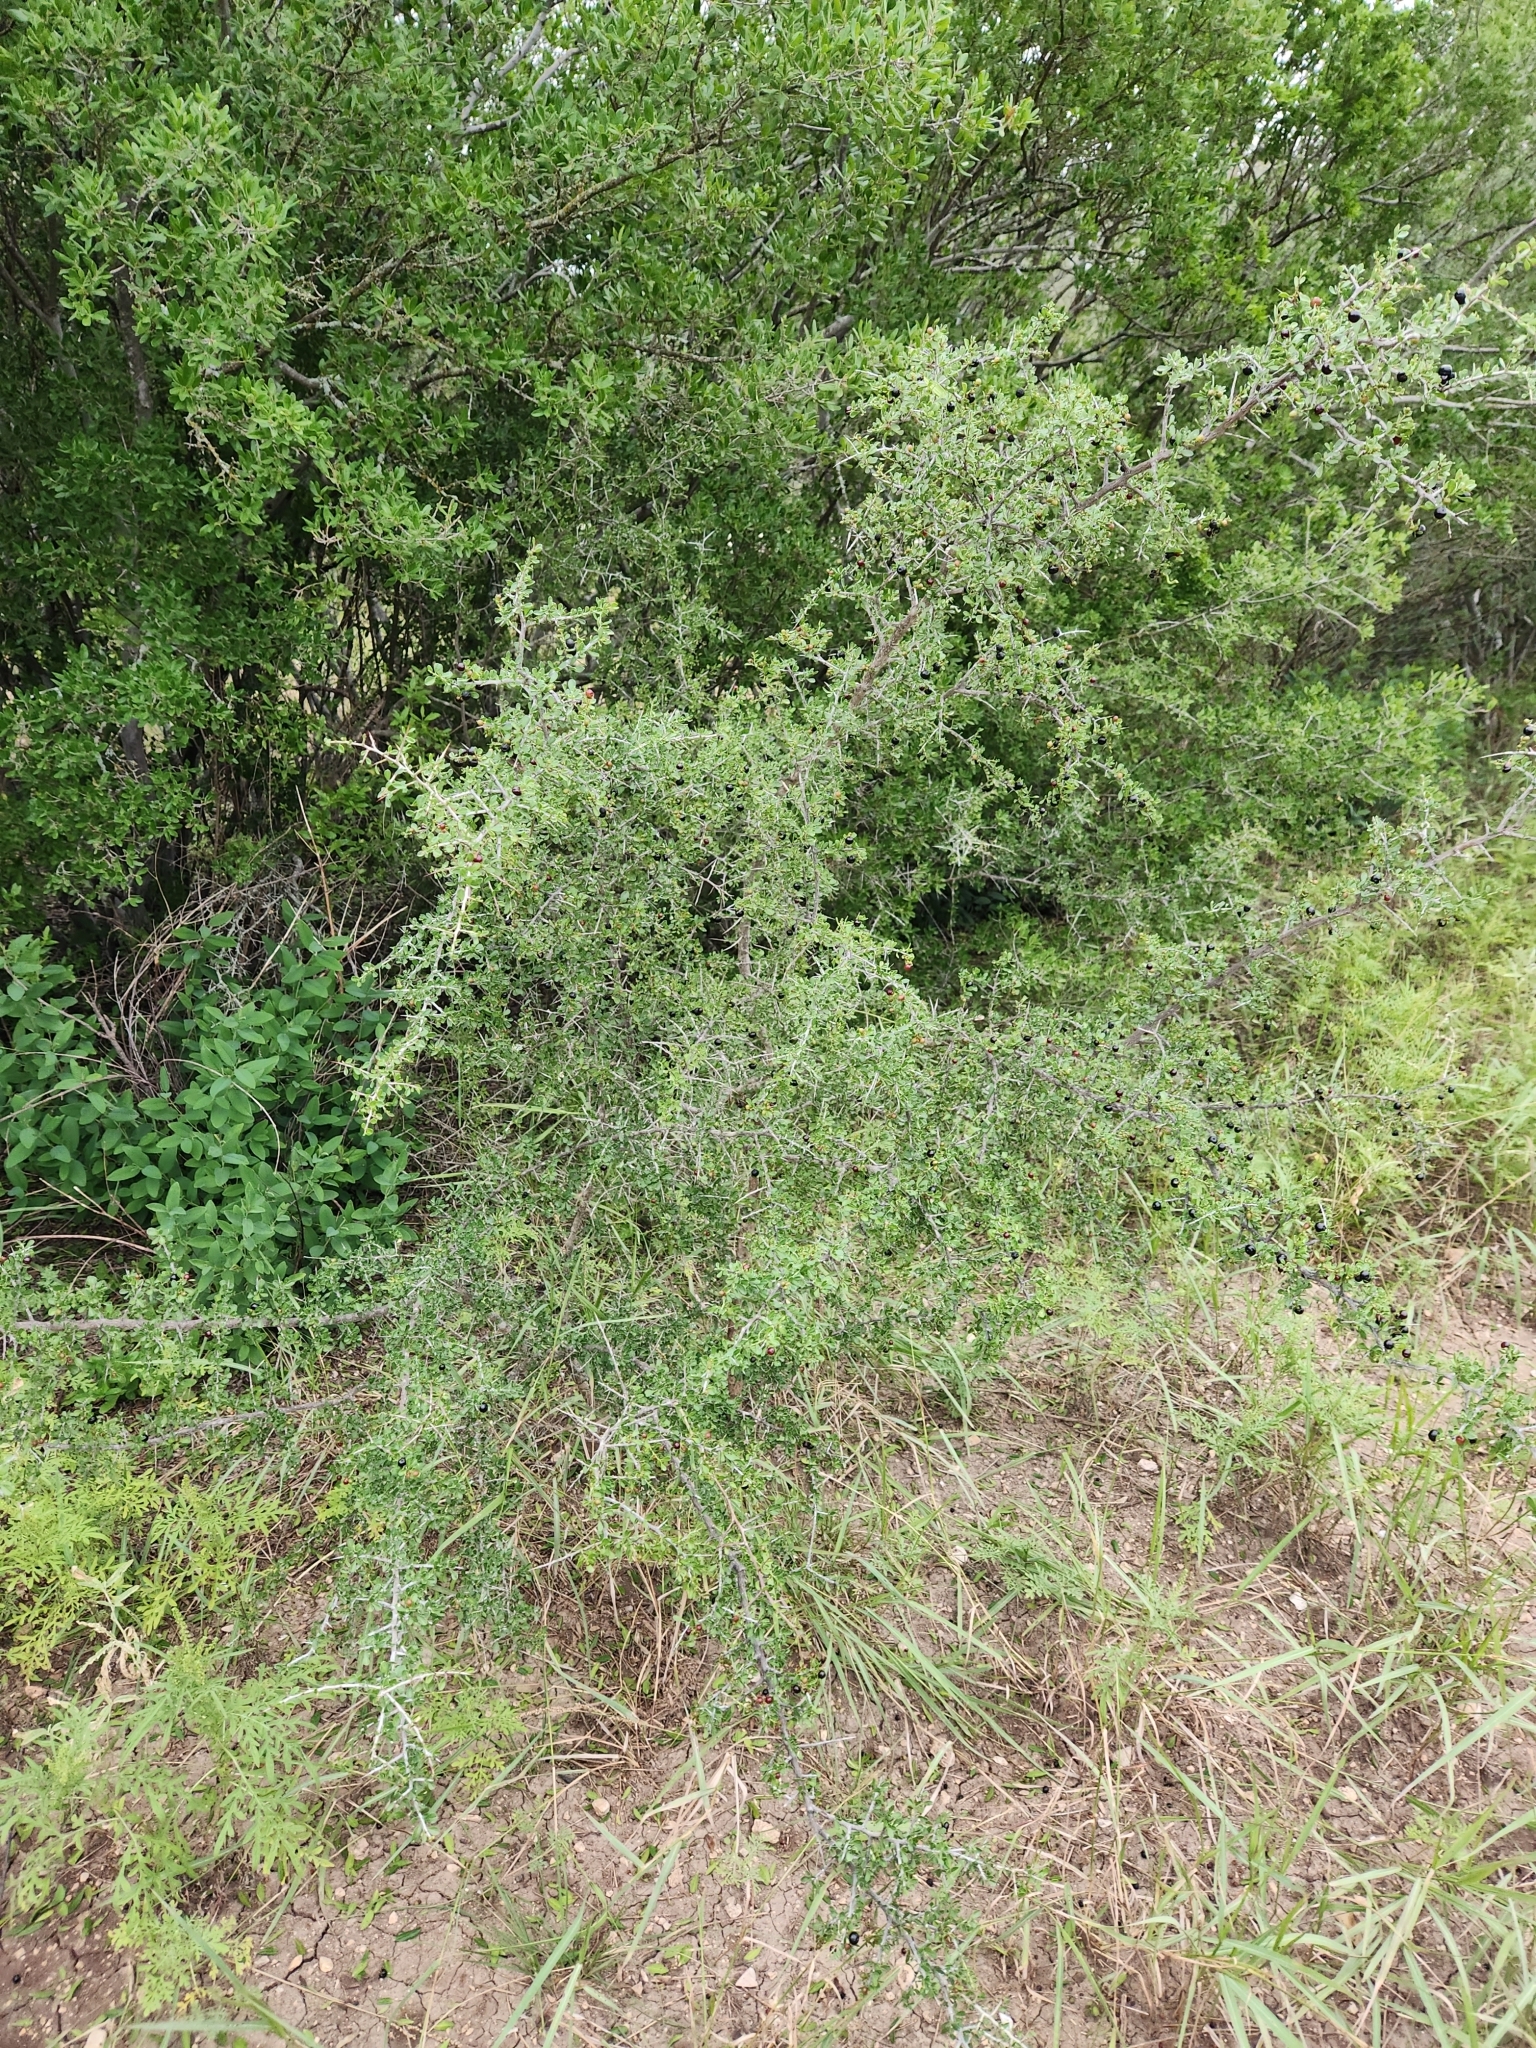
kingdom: Plantae
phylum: Tracheophyta
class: Magnoliopsida
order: Rosales
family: Rhamnaceae
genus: Condalia
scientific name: Condalia viridis
